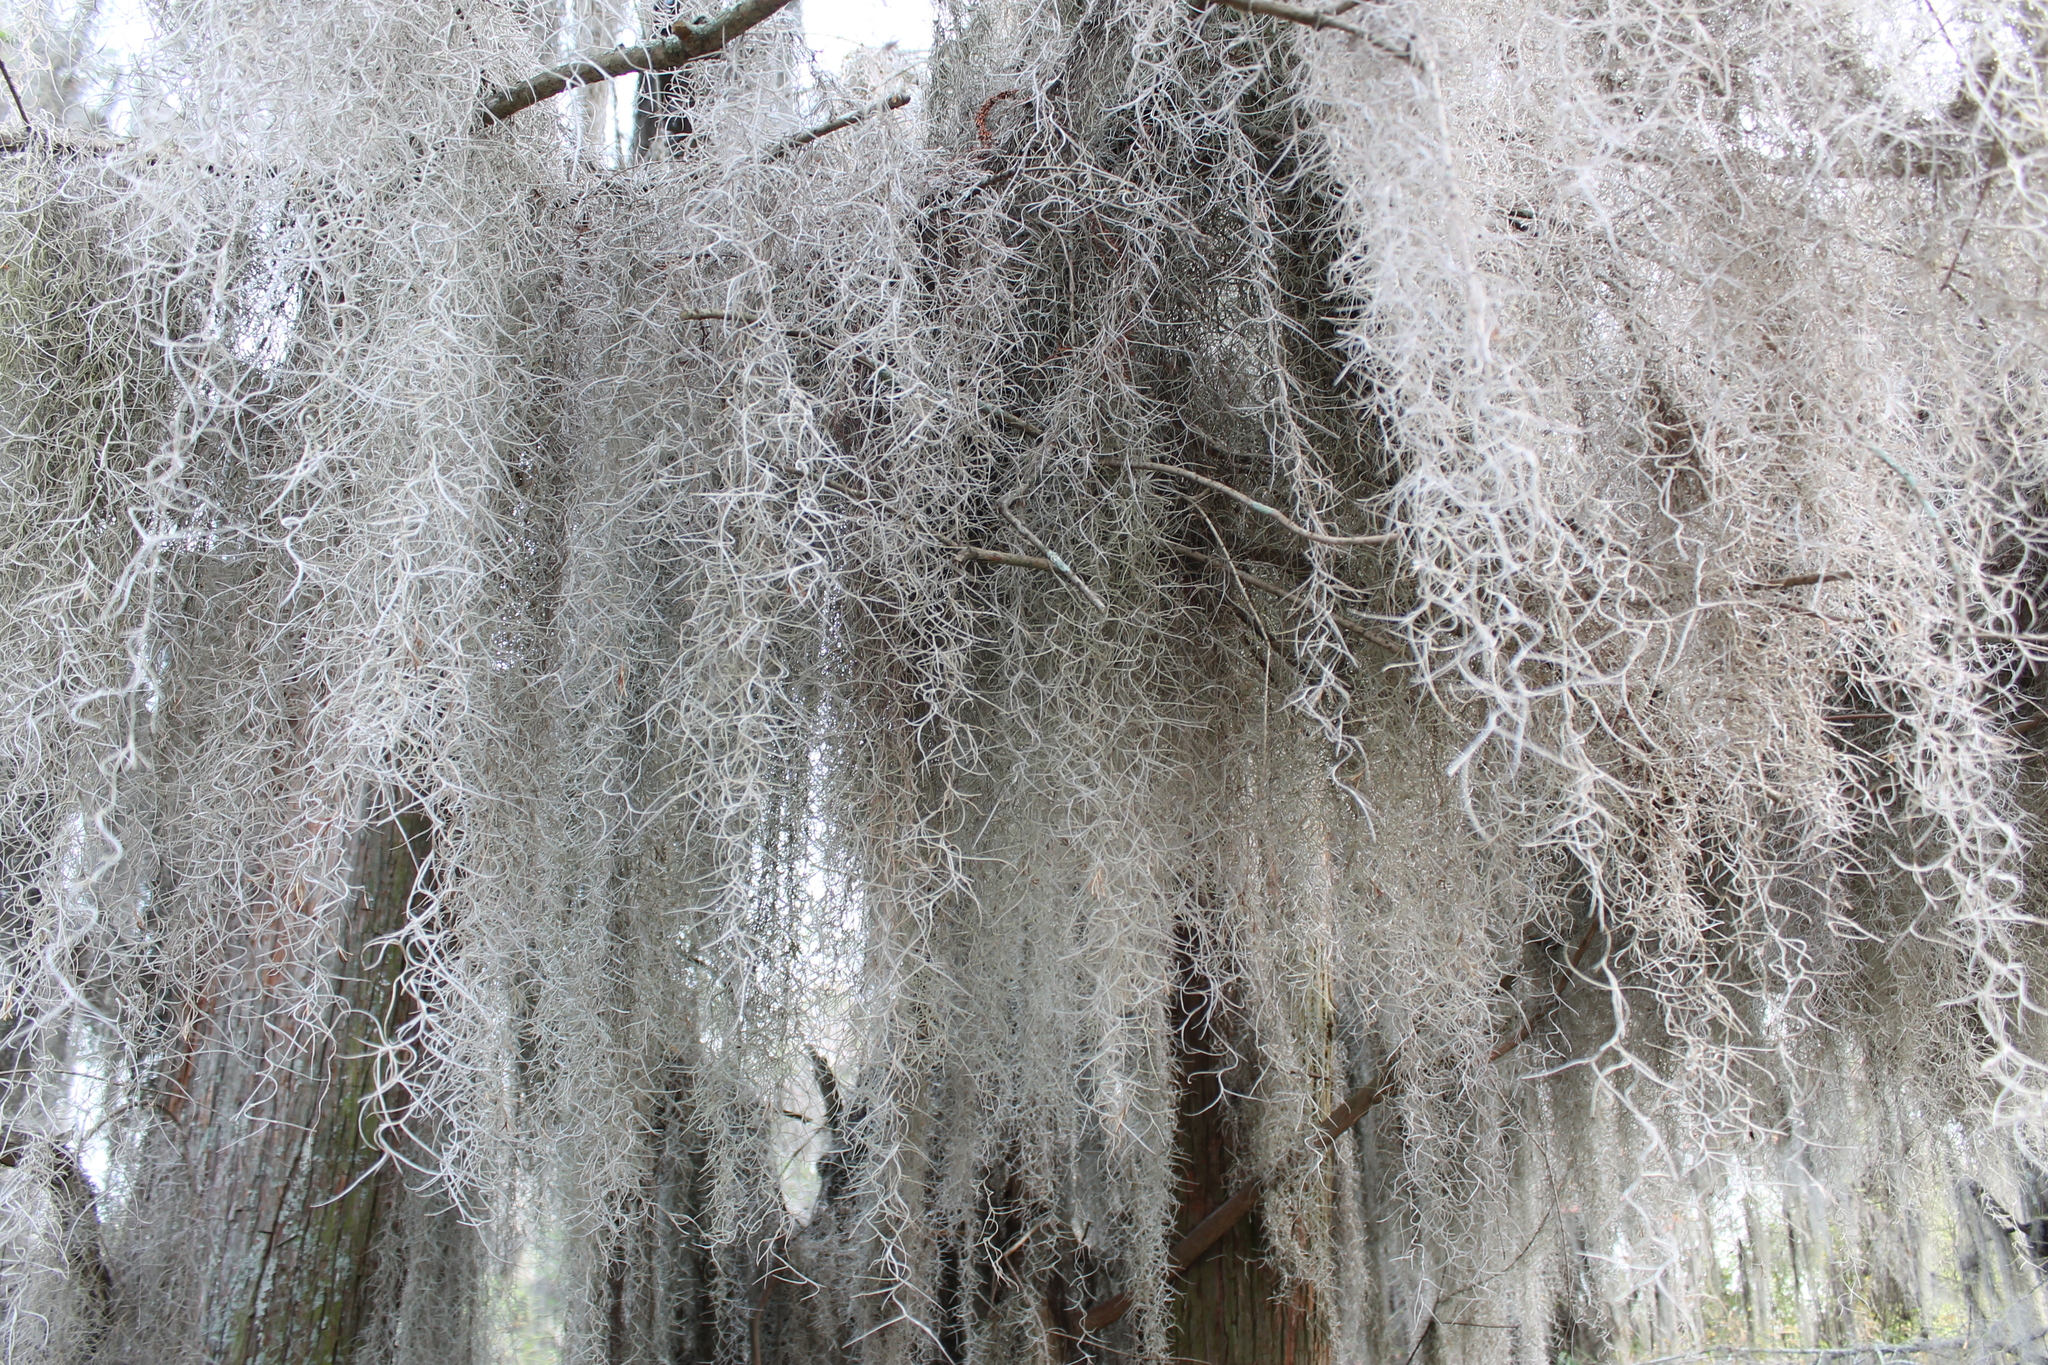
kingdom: Plantae
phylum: Tracheophyta
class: Liliopsida
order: Poales
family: Bromeliaceae
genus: Tillandsia
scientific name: Tillandsia usneoides
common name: Spanish moss
